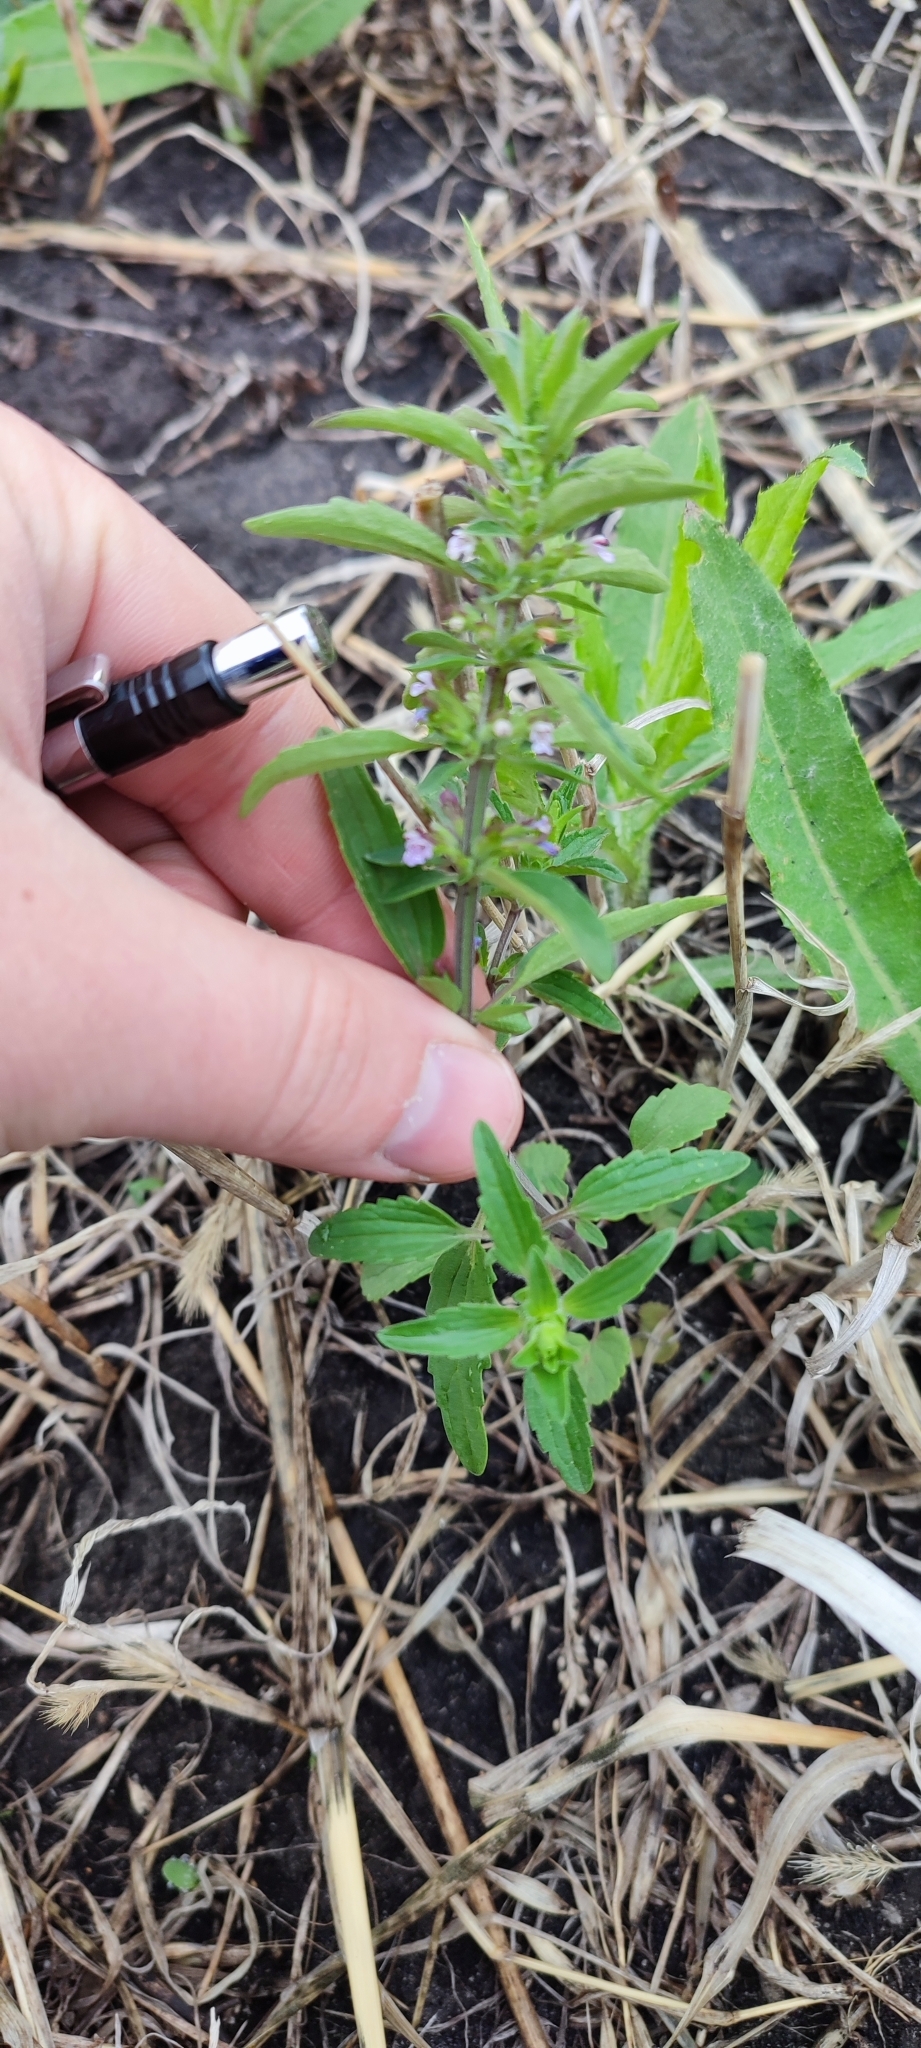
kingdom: Plantae
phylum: Tracheophyta
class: Magnoliopsida
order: Lamiales
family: Lamiaceae
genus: Dracocephalum
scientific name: Dracocephalum thymiflorum
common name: Thymeleaf dragonhead
